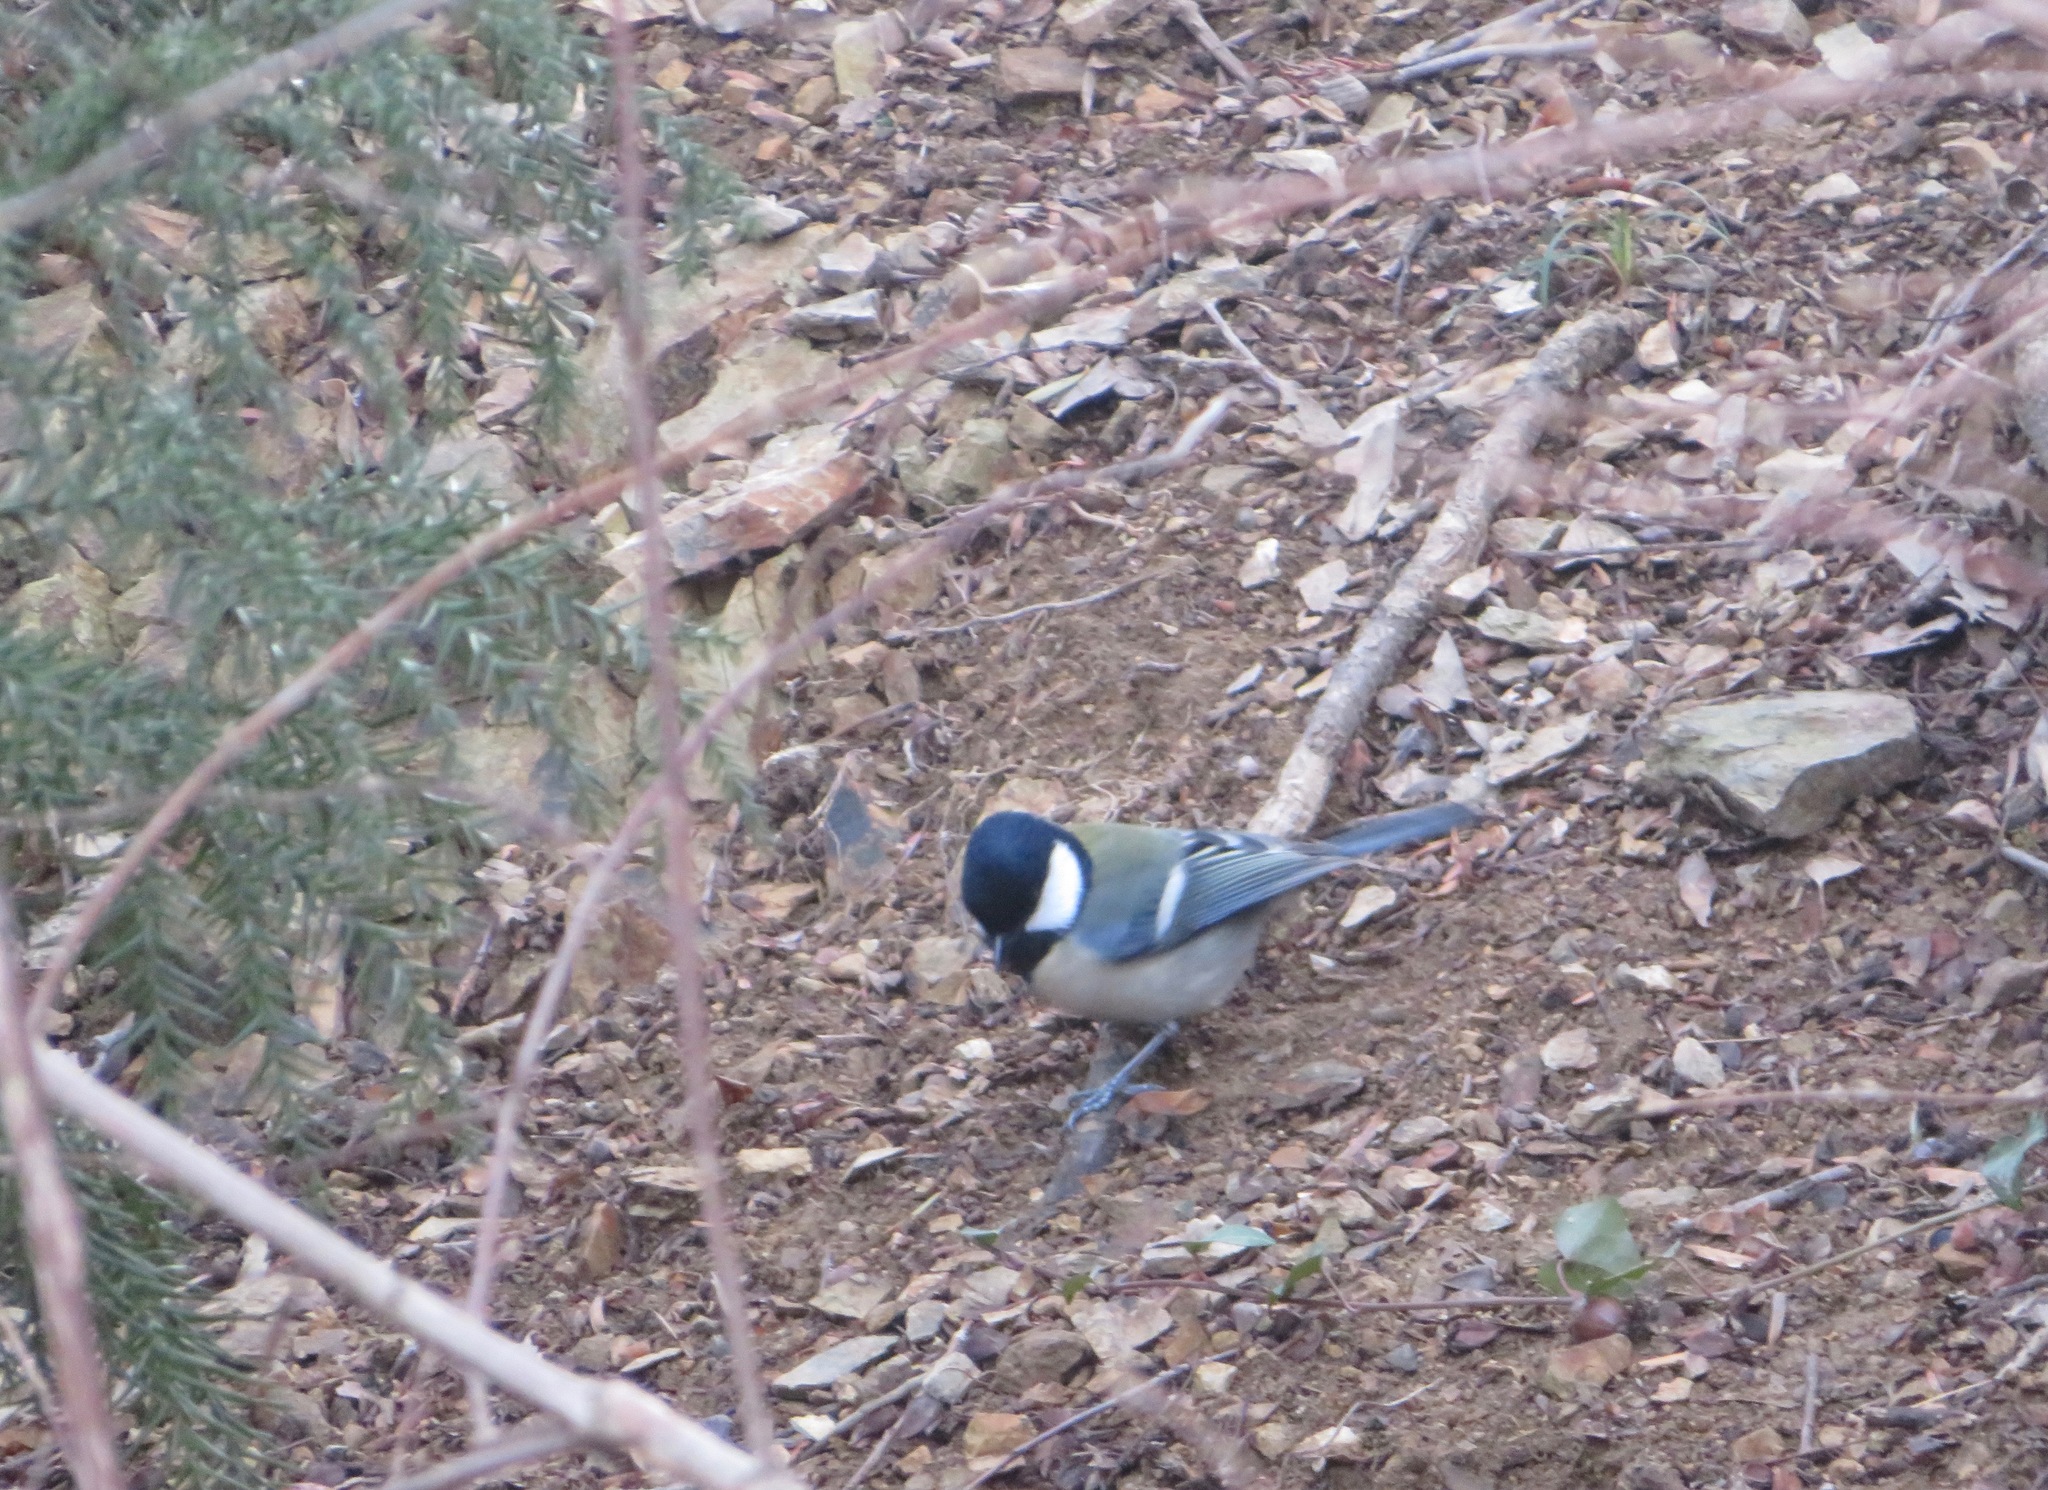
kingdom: Animalia
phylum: Chordata
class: Aves
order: Passeriformes
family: Paridae
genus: Parus
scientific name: Parus minor
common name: Japanese tit
